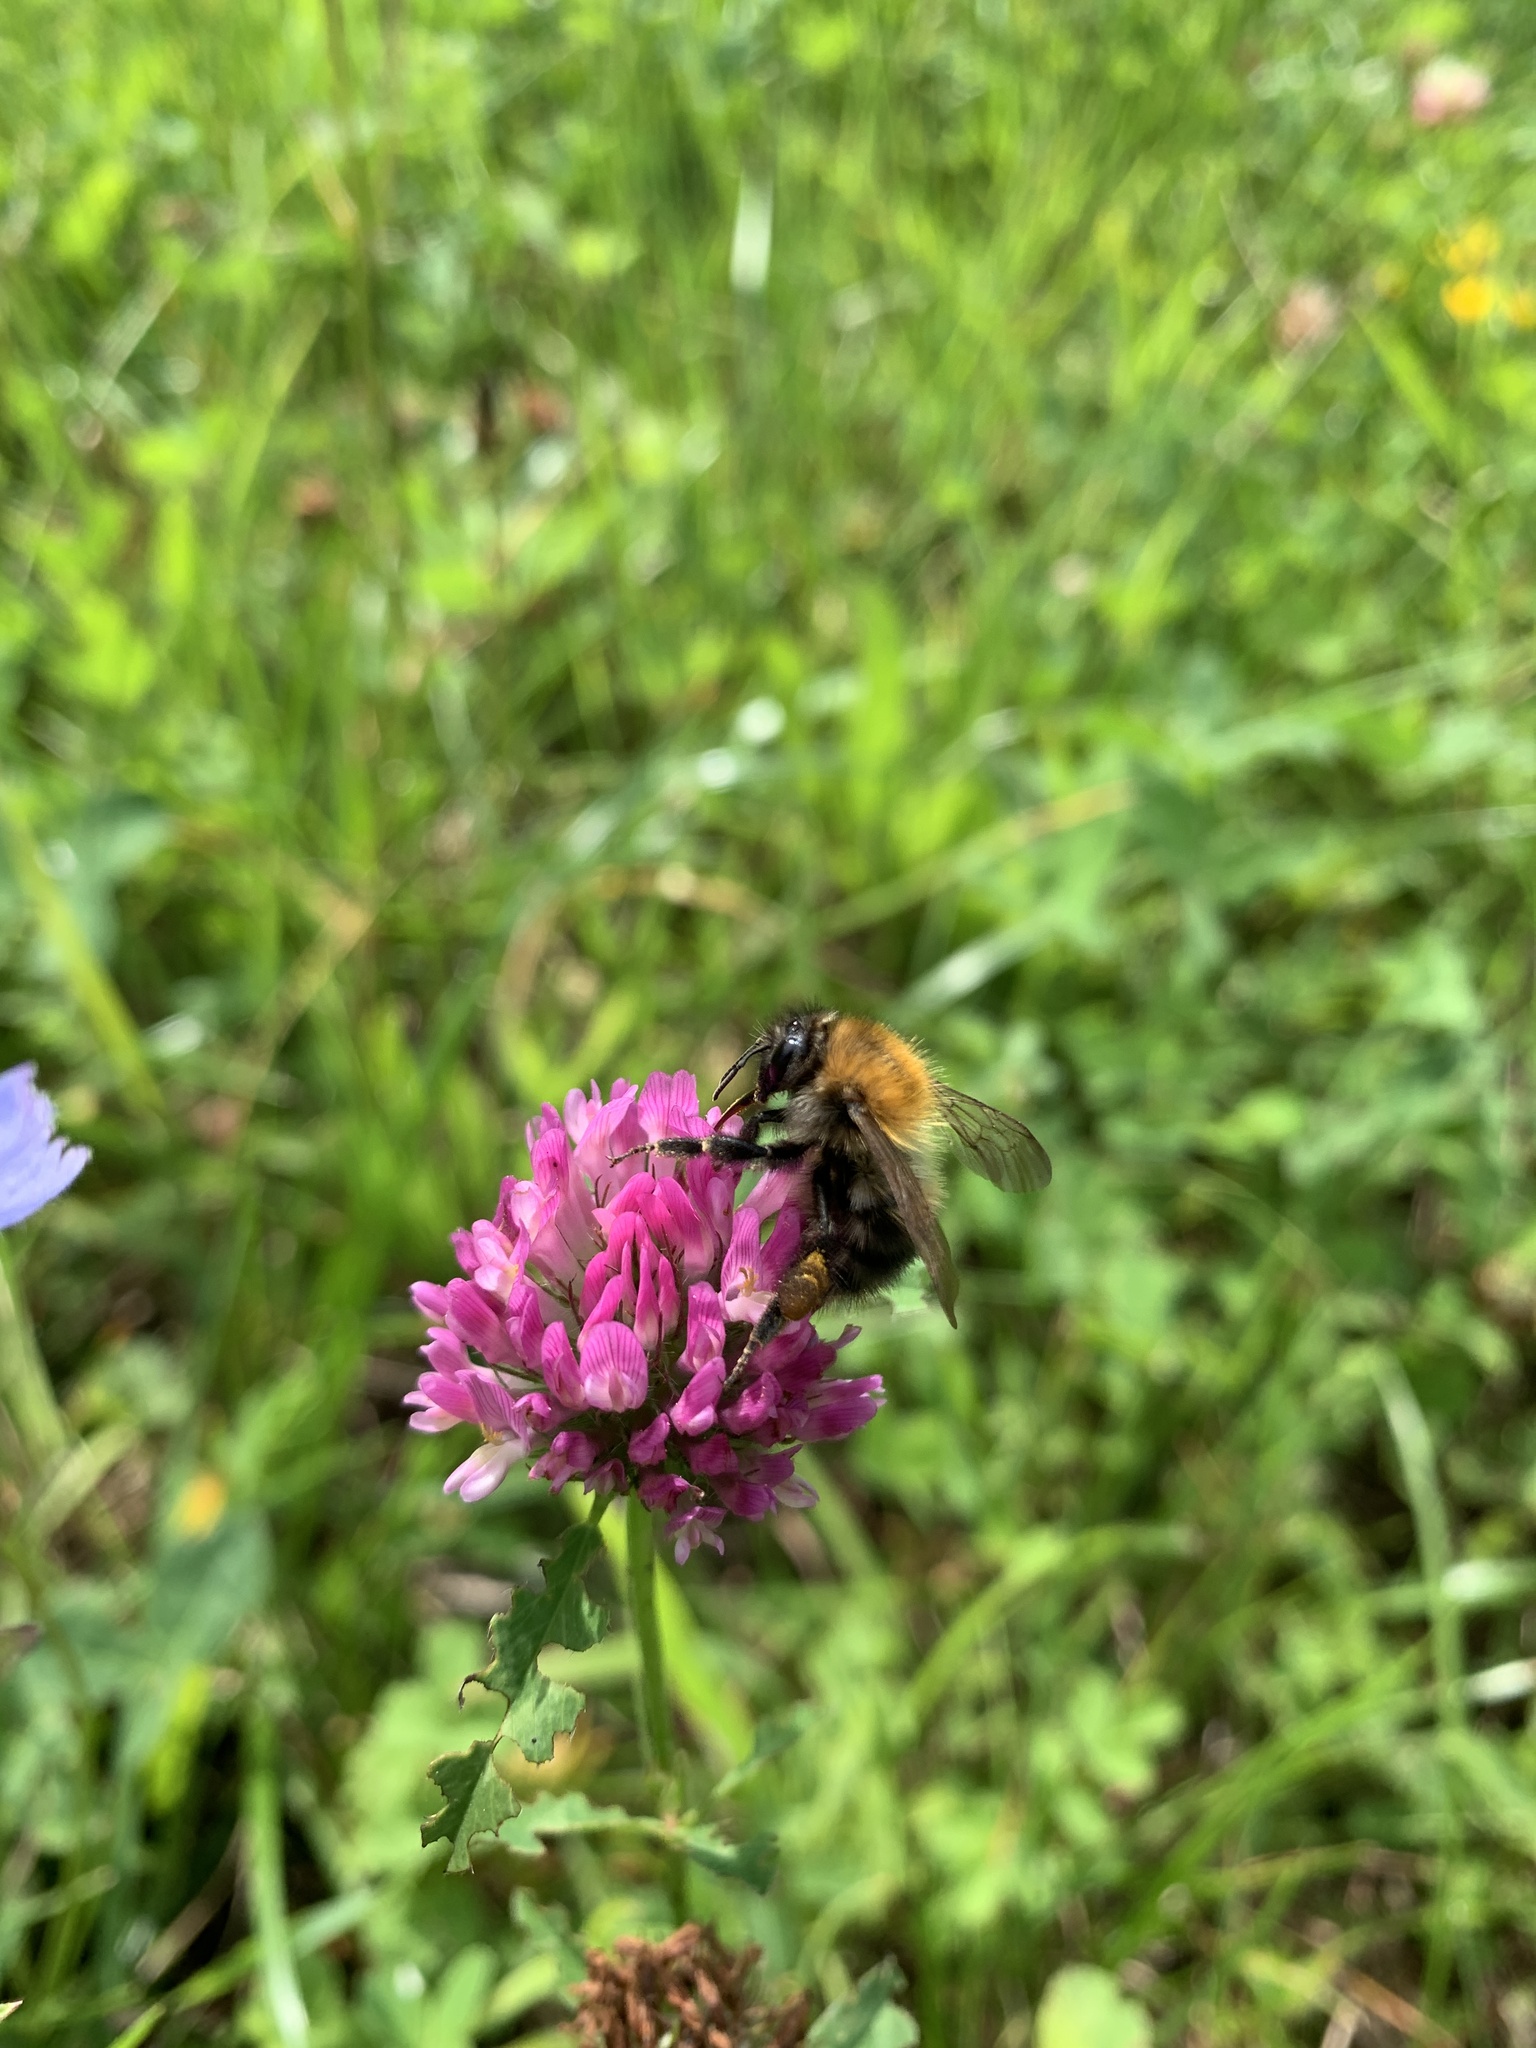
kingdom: Animalia
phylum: Arthropoda
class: Insecta
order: Hymenoptera
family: Apidae
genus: Bombus
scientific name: Bombus pascuorum
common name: Common carder bee
